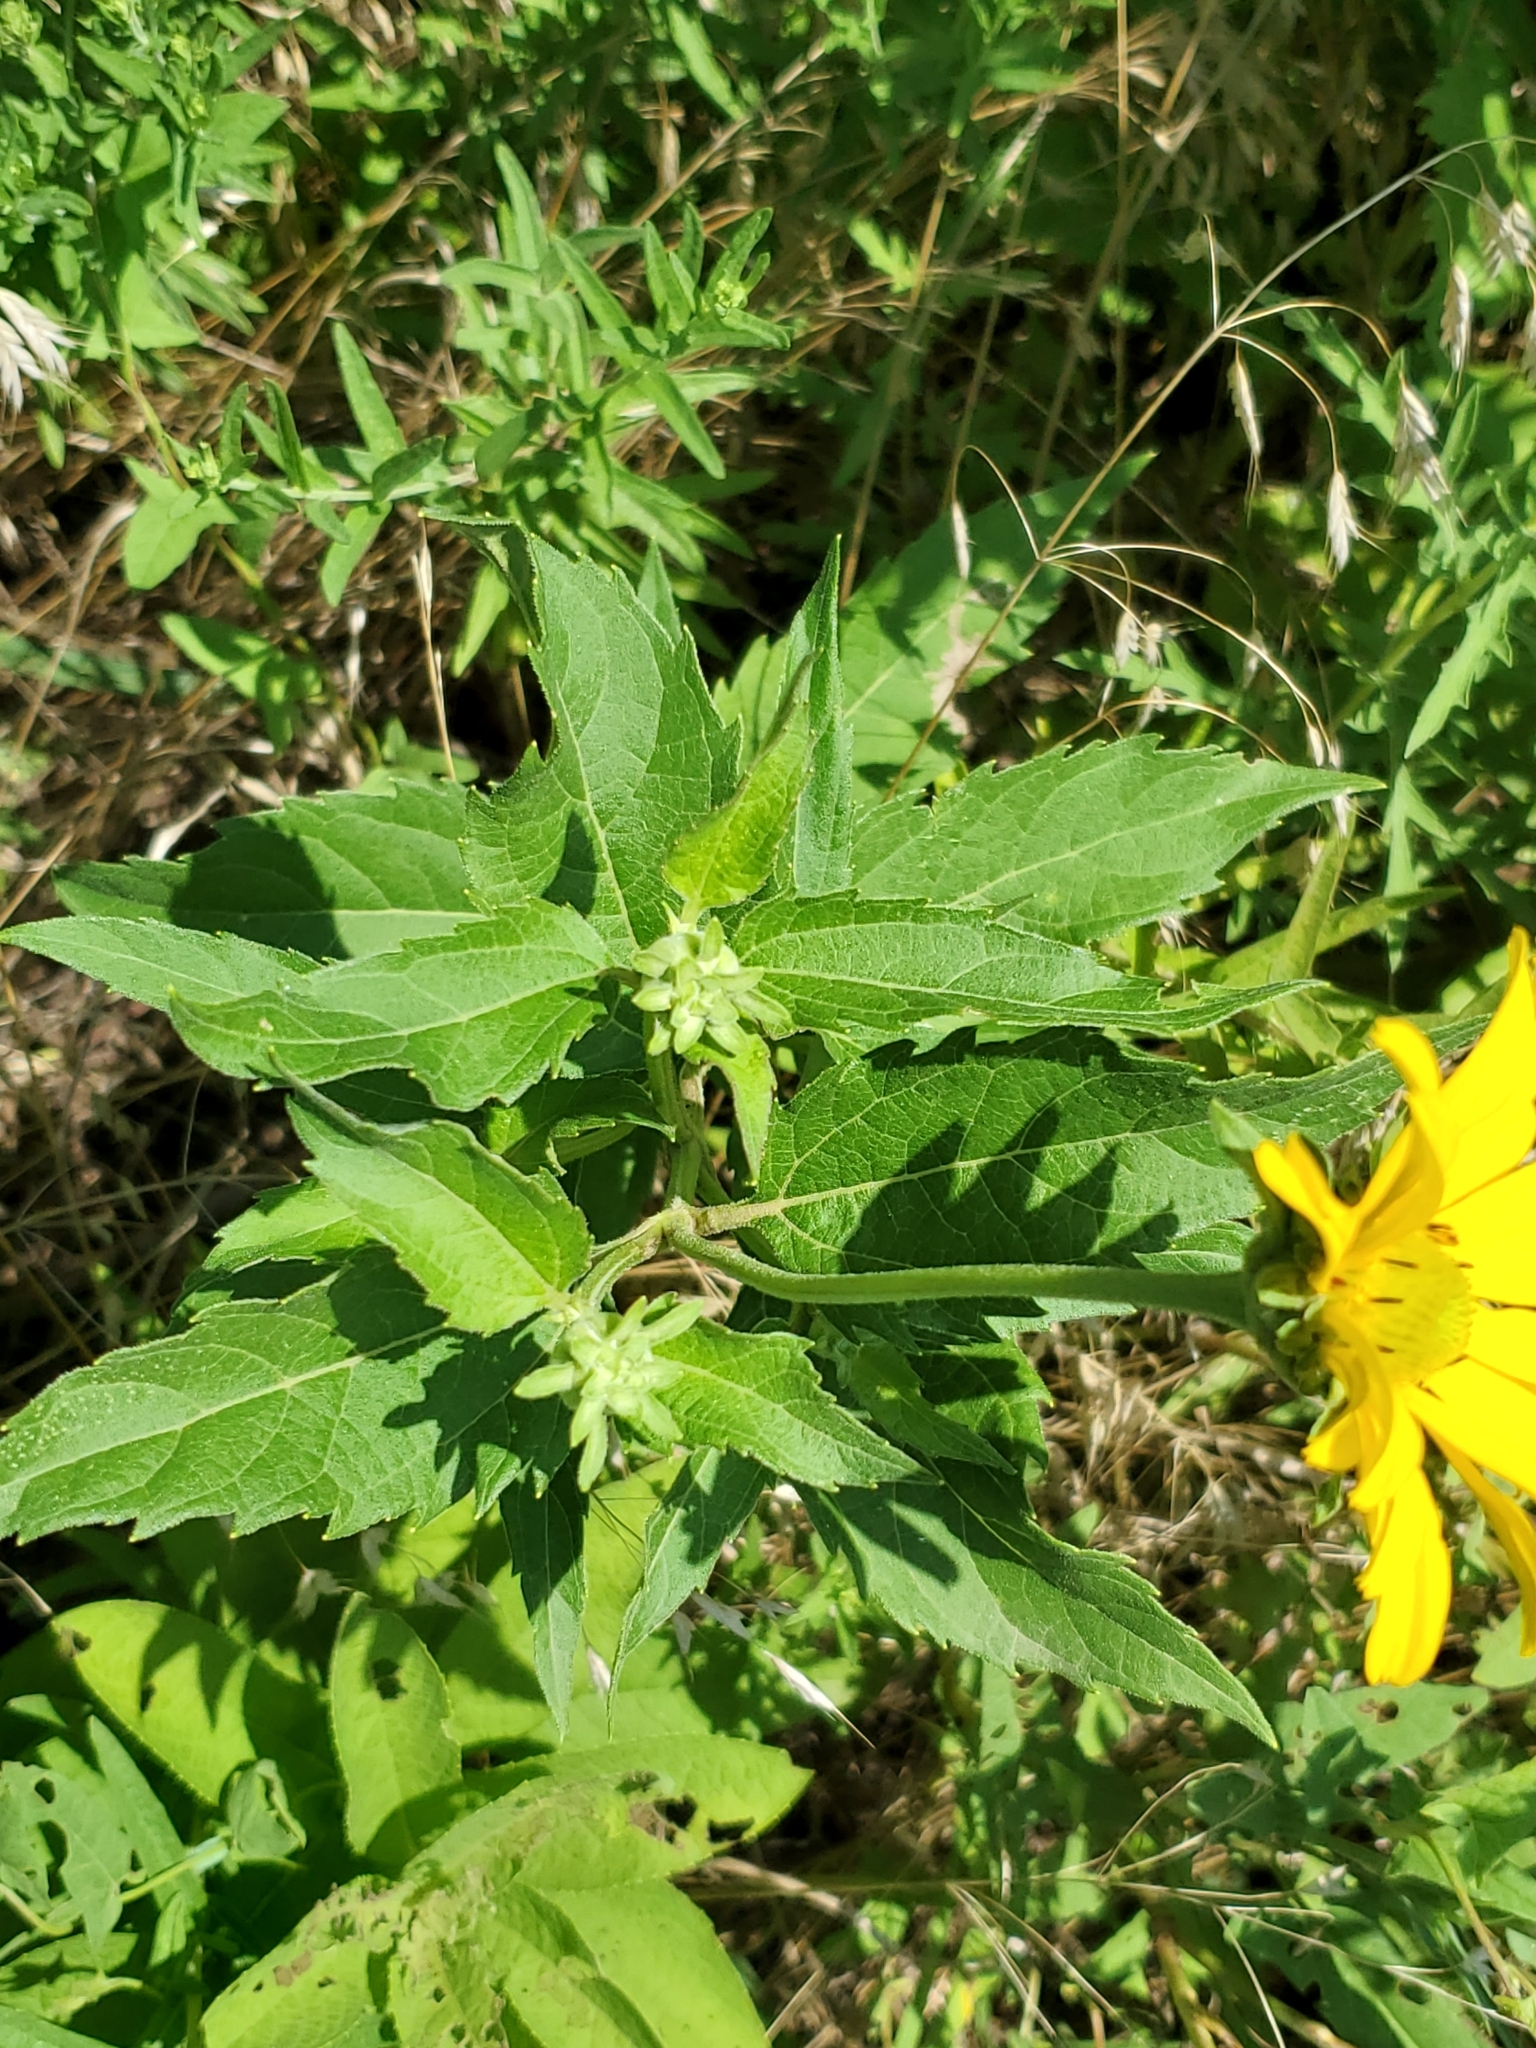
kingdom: Plantae
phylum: Tracheophyta
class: Magnoliopsida
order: Asterales
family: Asteraceae
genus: Heliopsis
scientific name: Heliopsis helianthoides
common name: False sunflower
